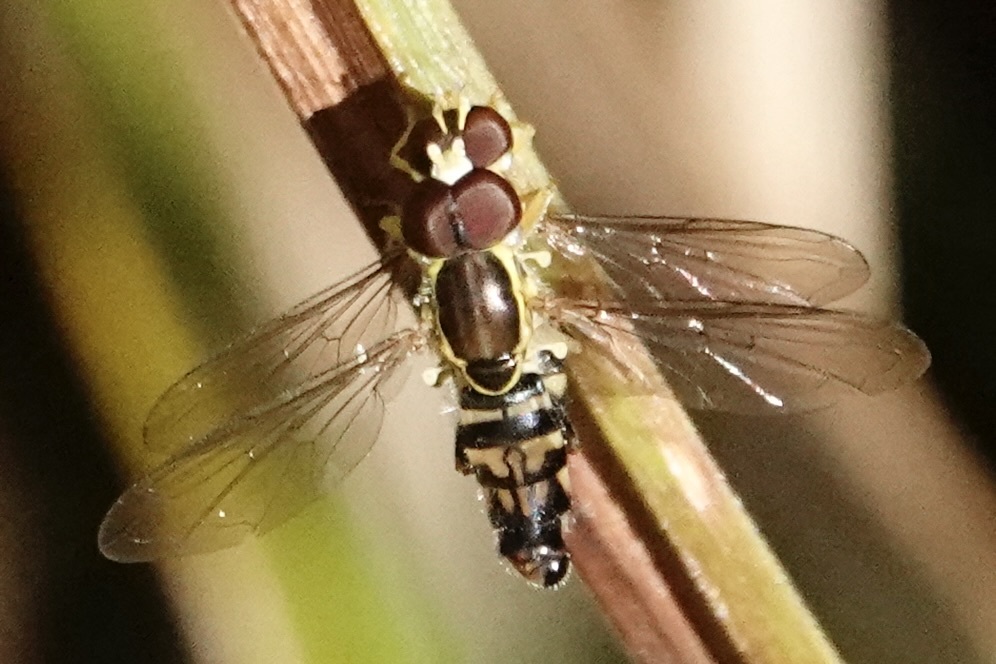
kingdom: Animalia
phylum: Arthropoda
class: Insecta
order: Diptera
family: Syrphidae
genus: Toxomerus
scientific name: Toxomerus geminatus
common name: Eastern calligrapher
